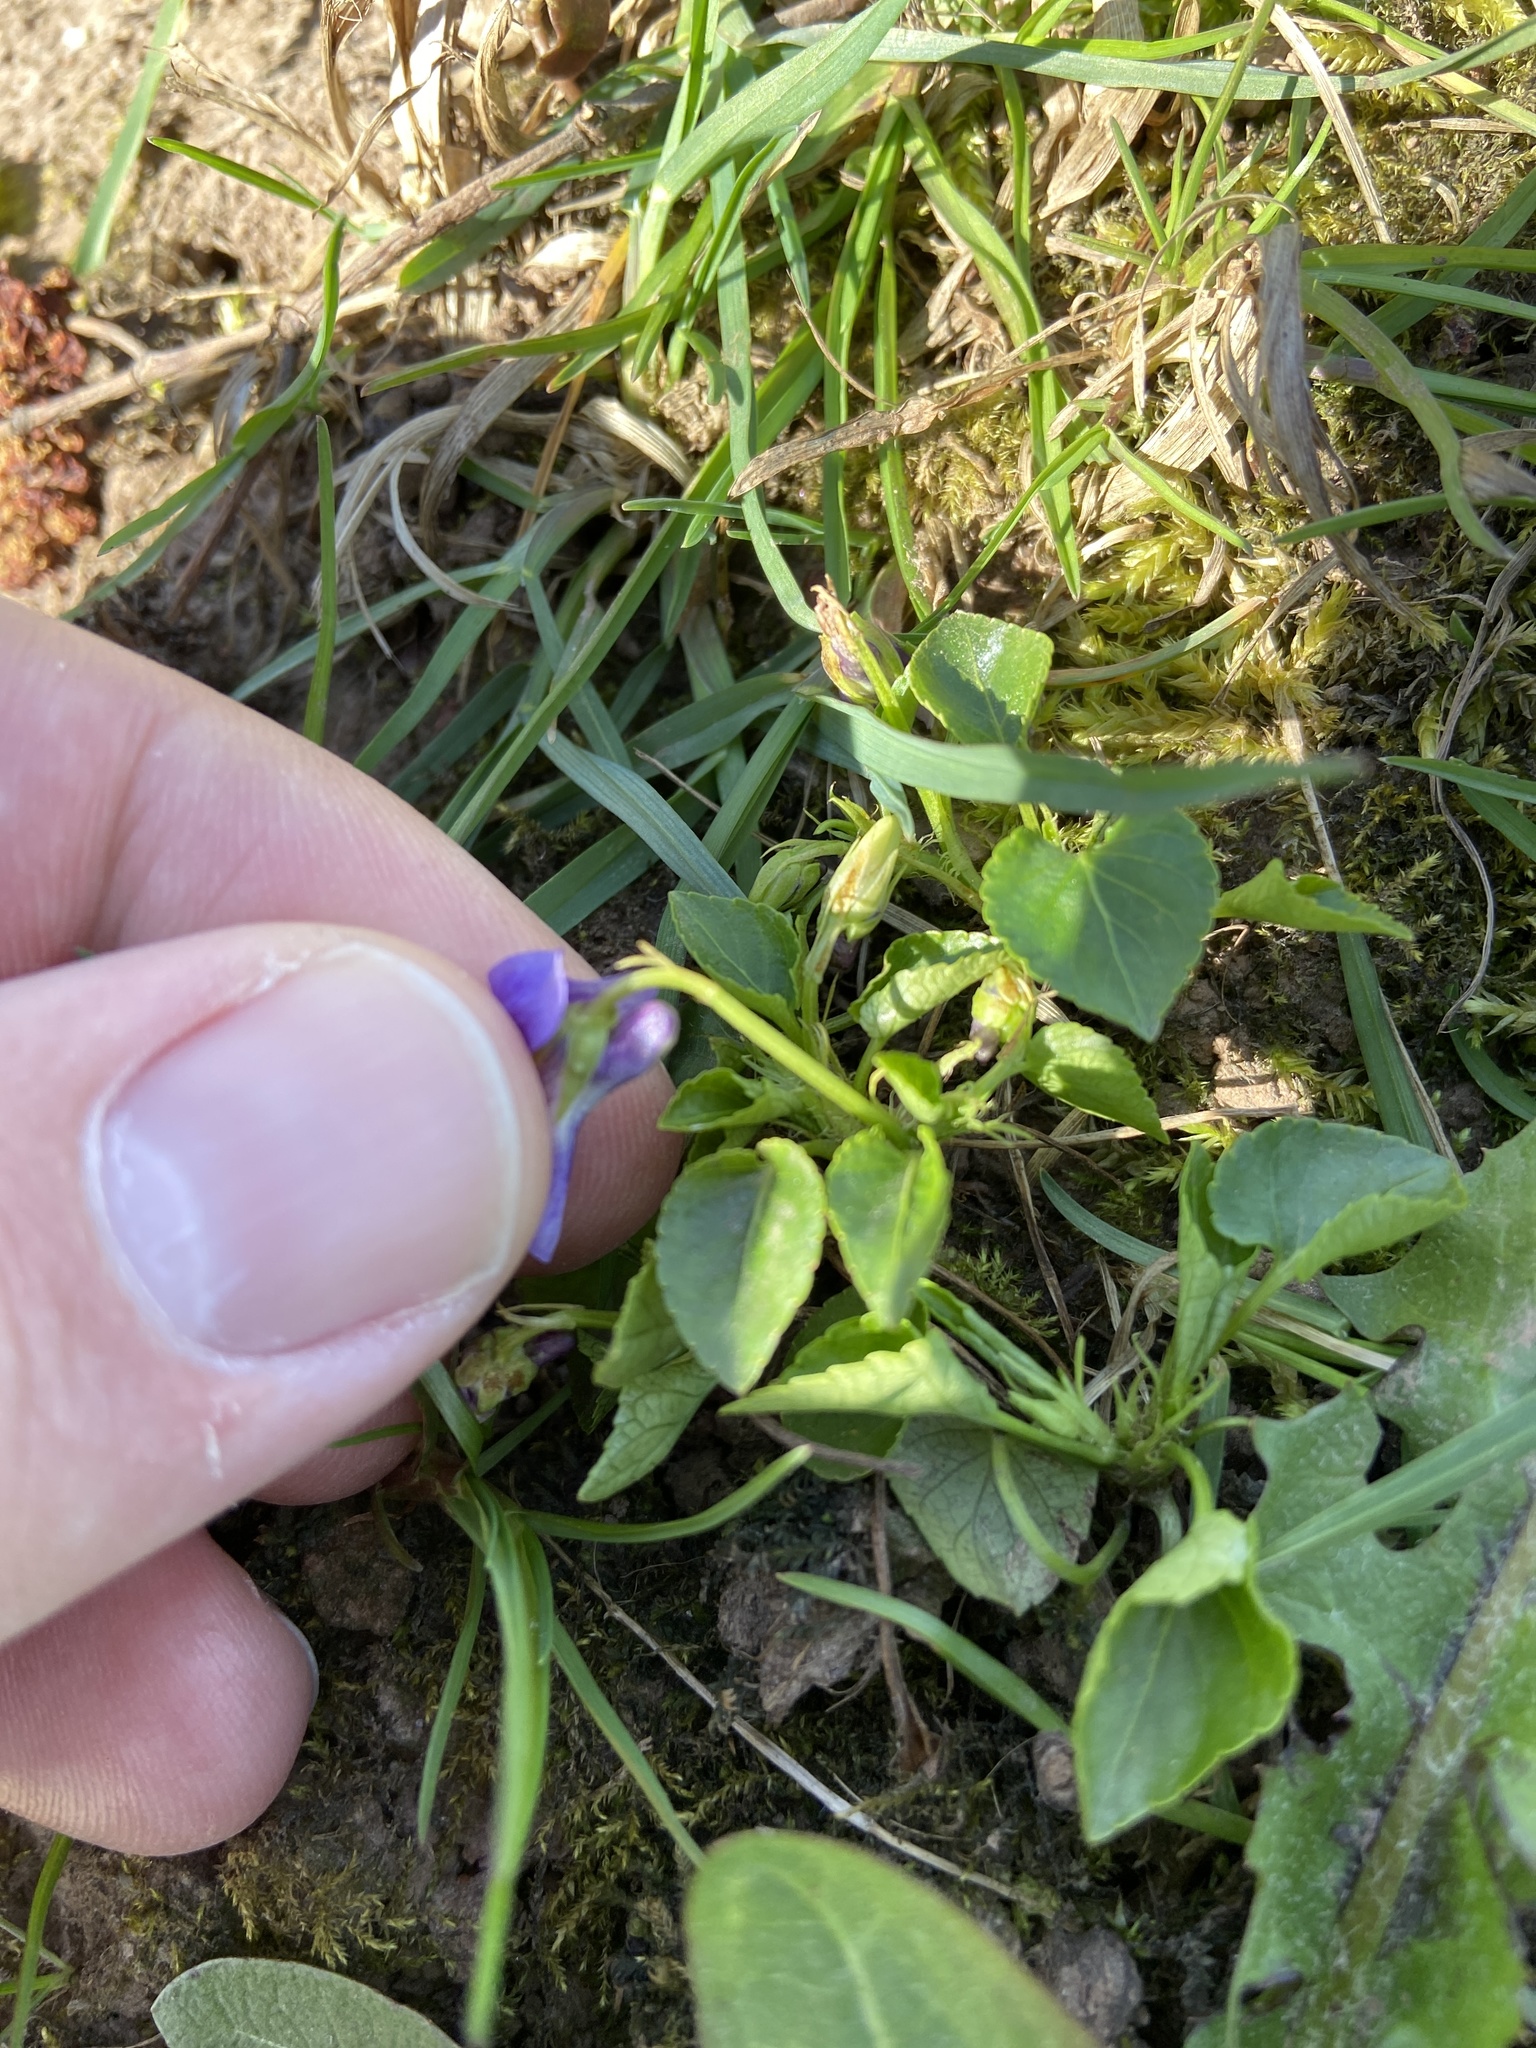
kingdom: Plantae
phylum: Tracheophyta
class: Magnoliopsida
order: Malpighiales
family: Violaceae
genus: Viola
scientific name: Viola reichenbachiana
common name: Early dog-violet
